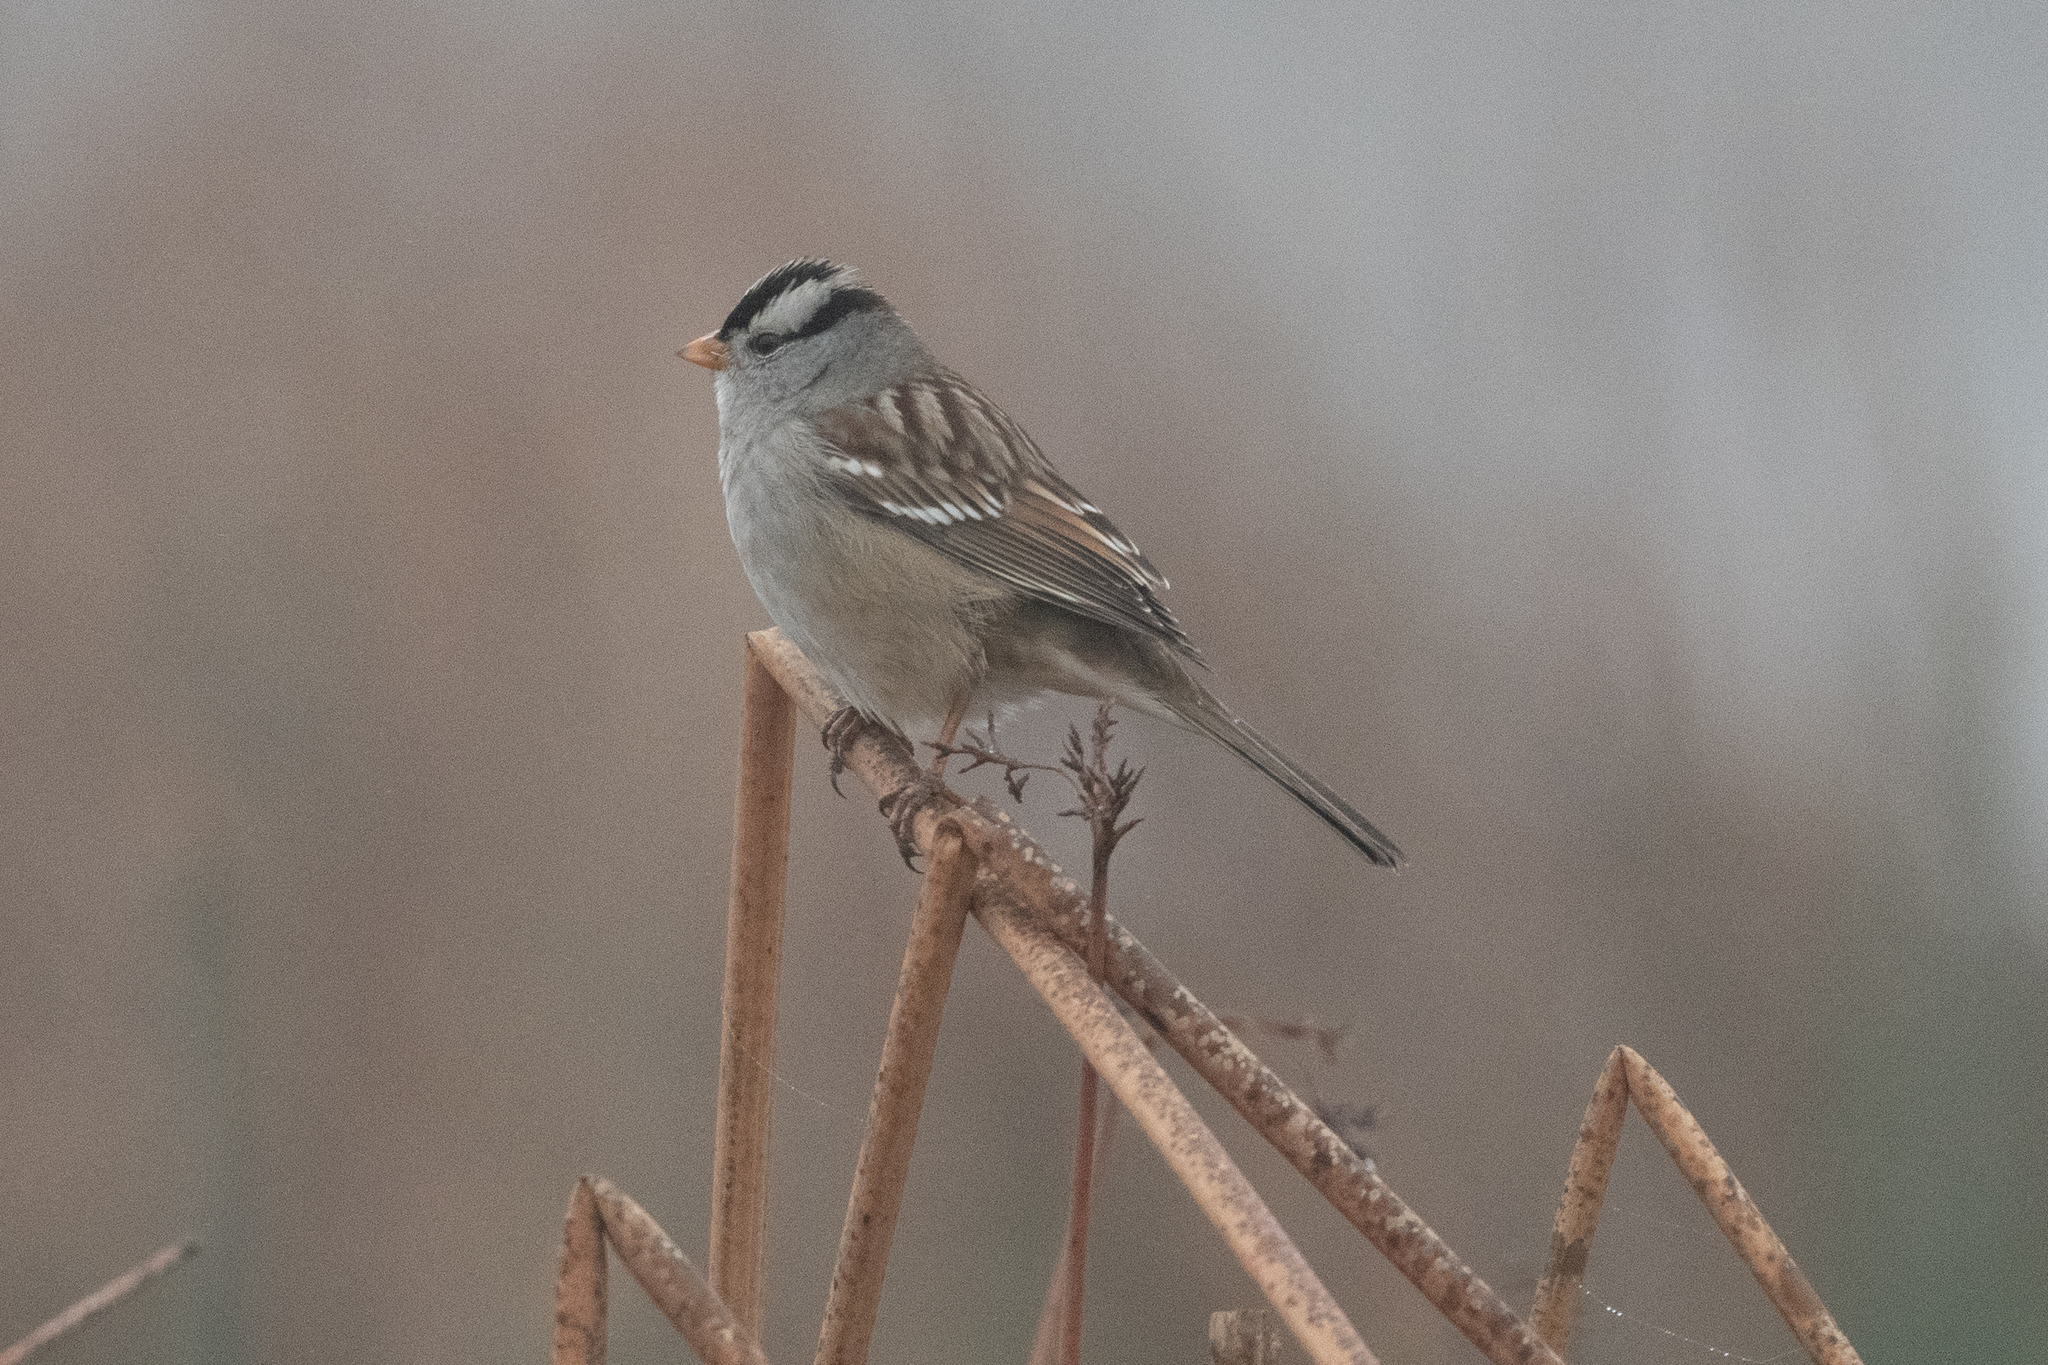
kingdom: Animalia
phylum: Chordata
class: Aves
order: Passeriformes
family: Passerellidae
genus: Zonotrichia
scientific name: Zonotrichia leucophrys
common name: White-crowned sparrow
